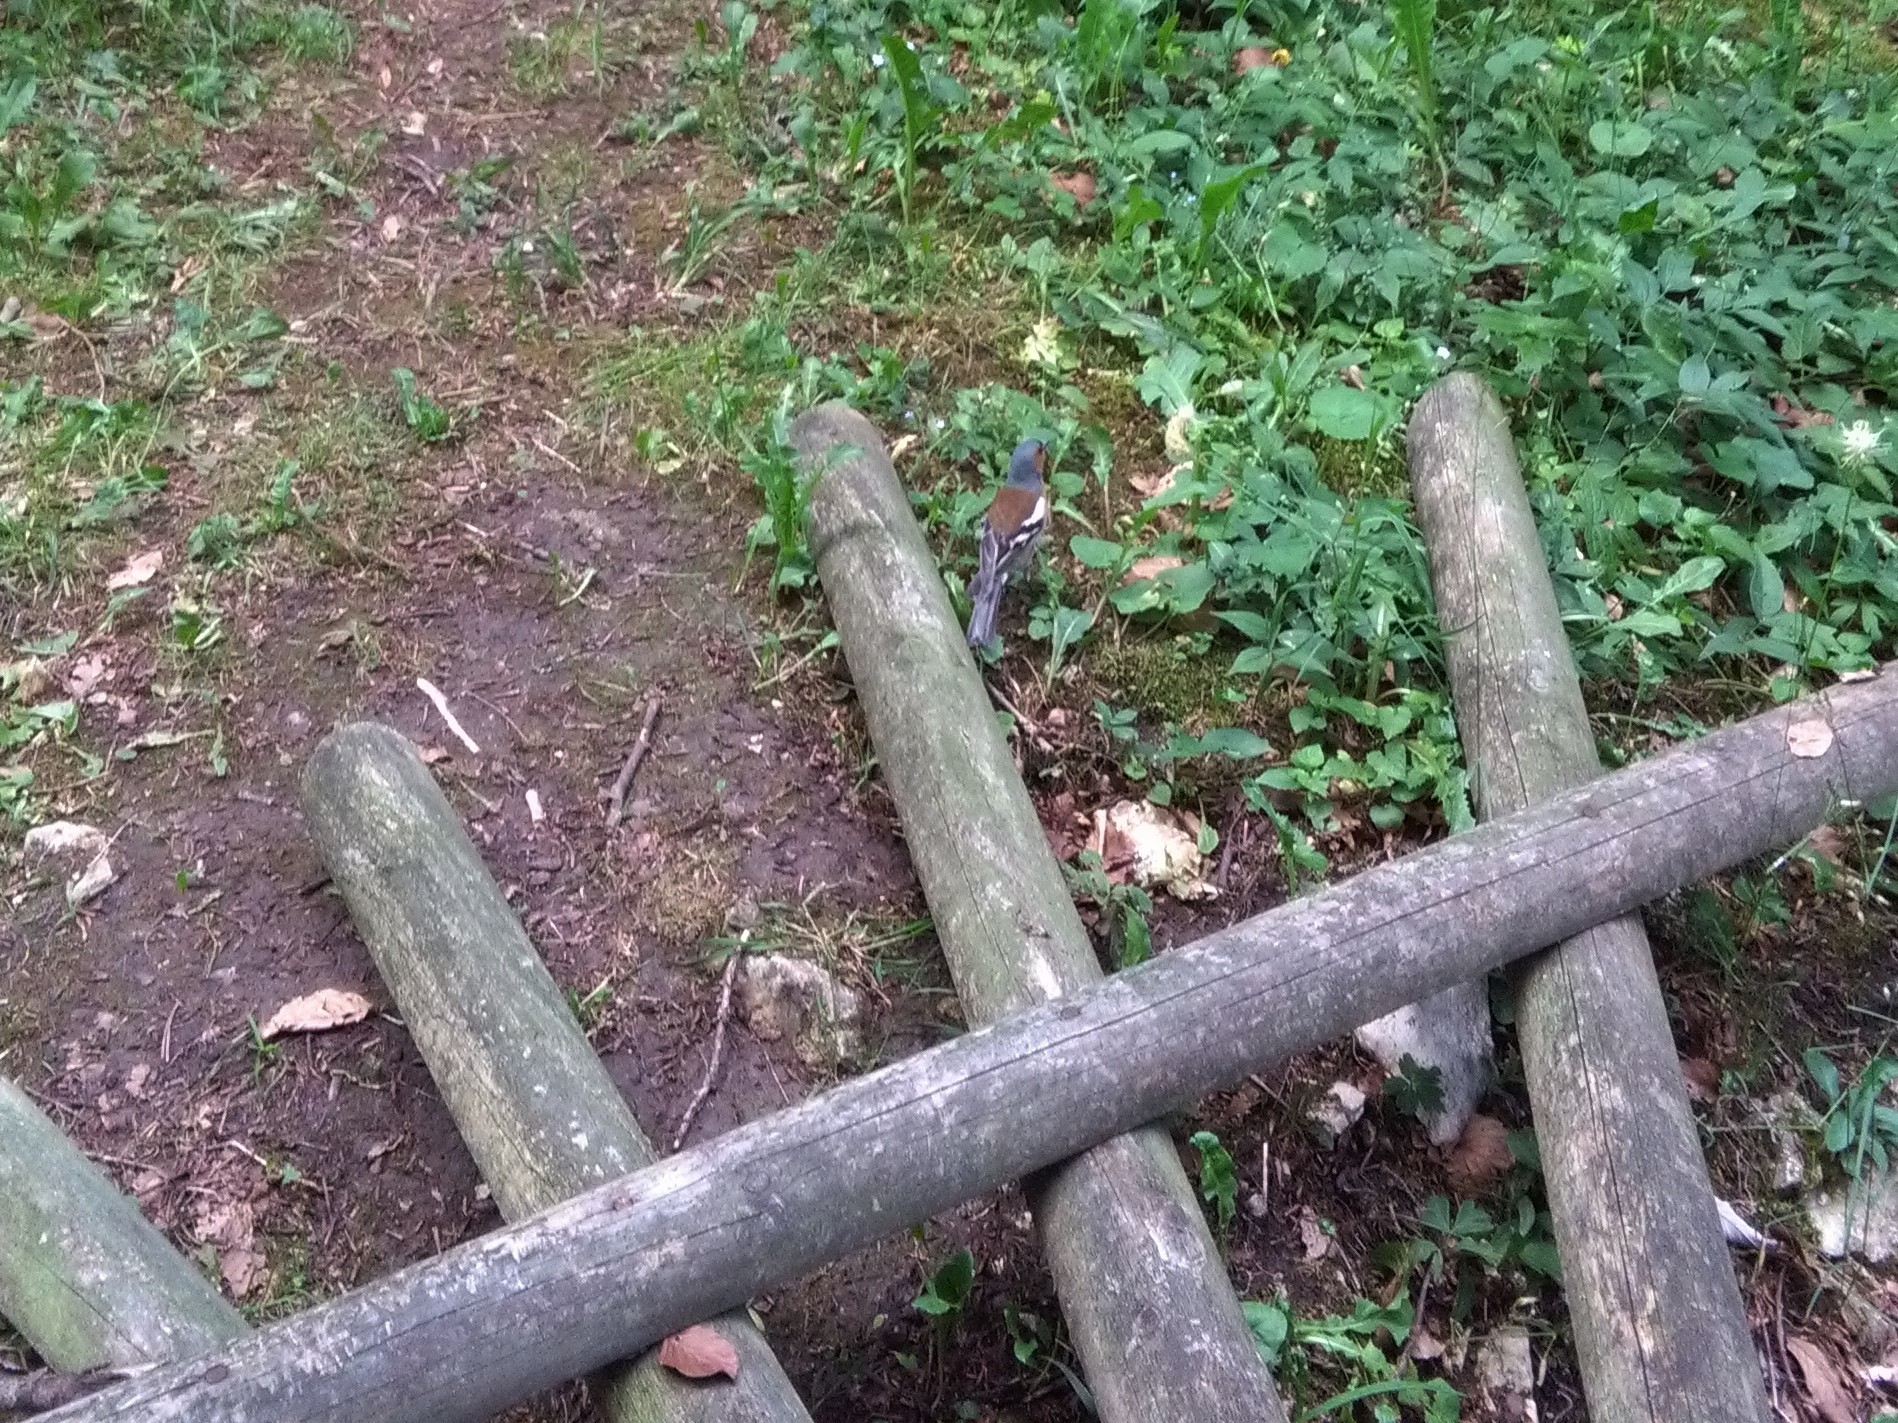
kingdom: Animalia
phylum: Chordata
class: Aves
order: Passeriformes
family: Fringillidae
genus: Fringilla
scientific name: Fringilla coelebs
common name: Common chaffinch
